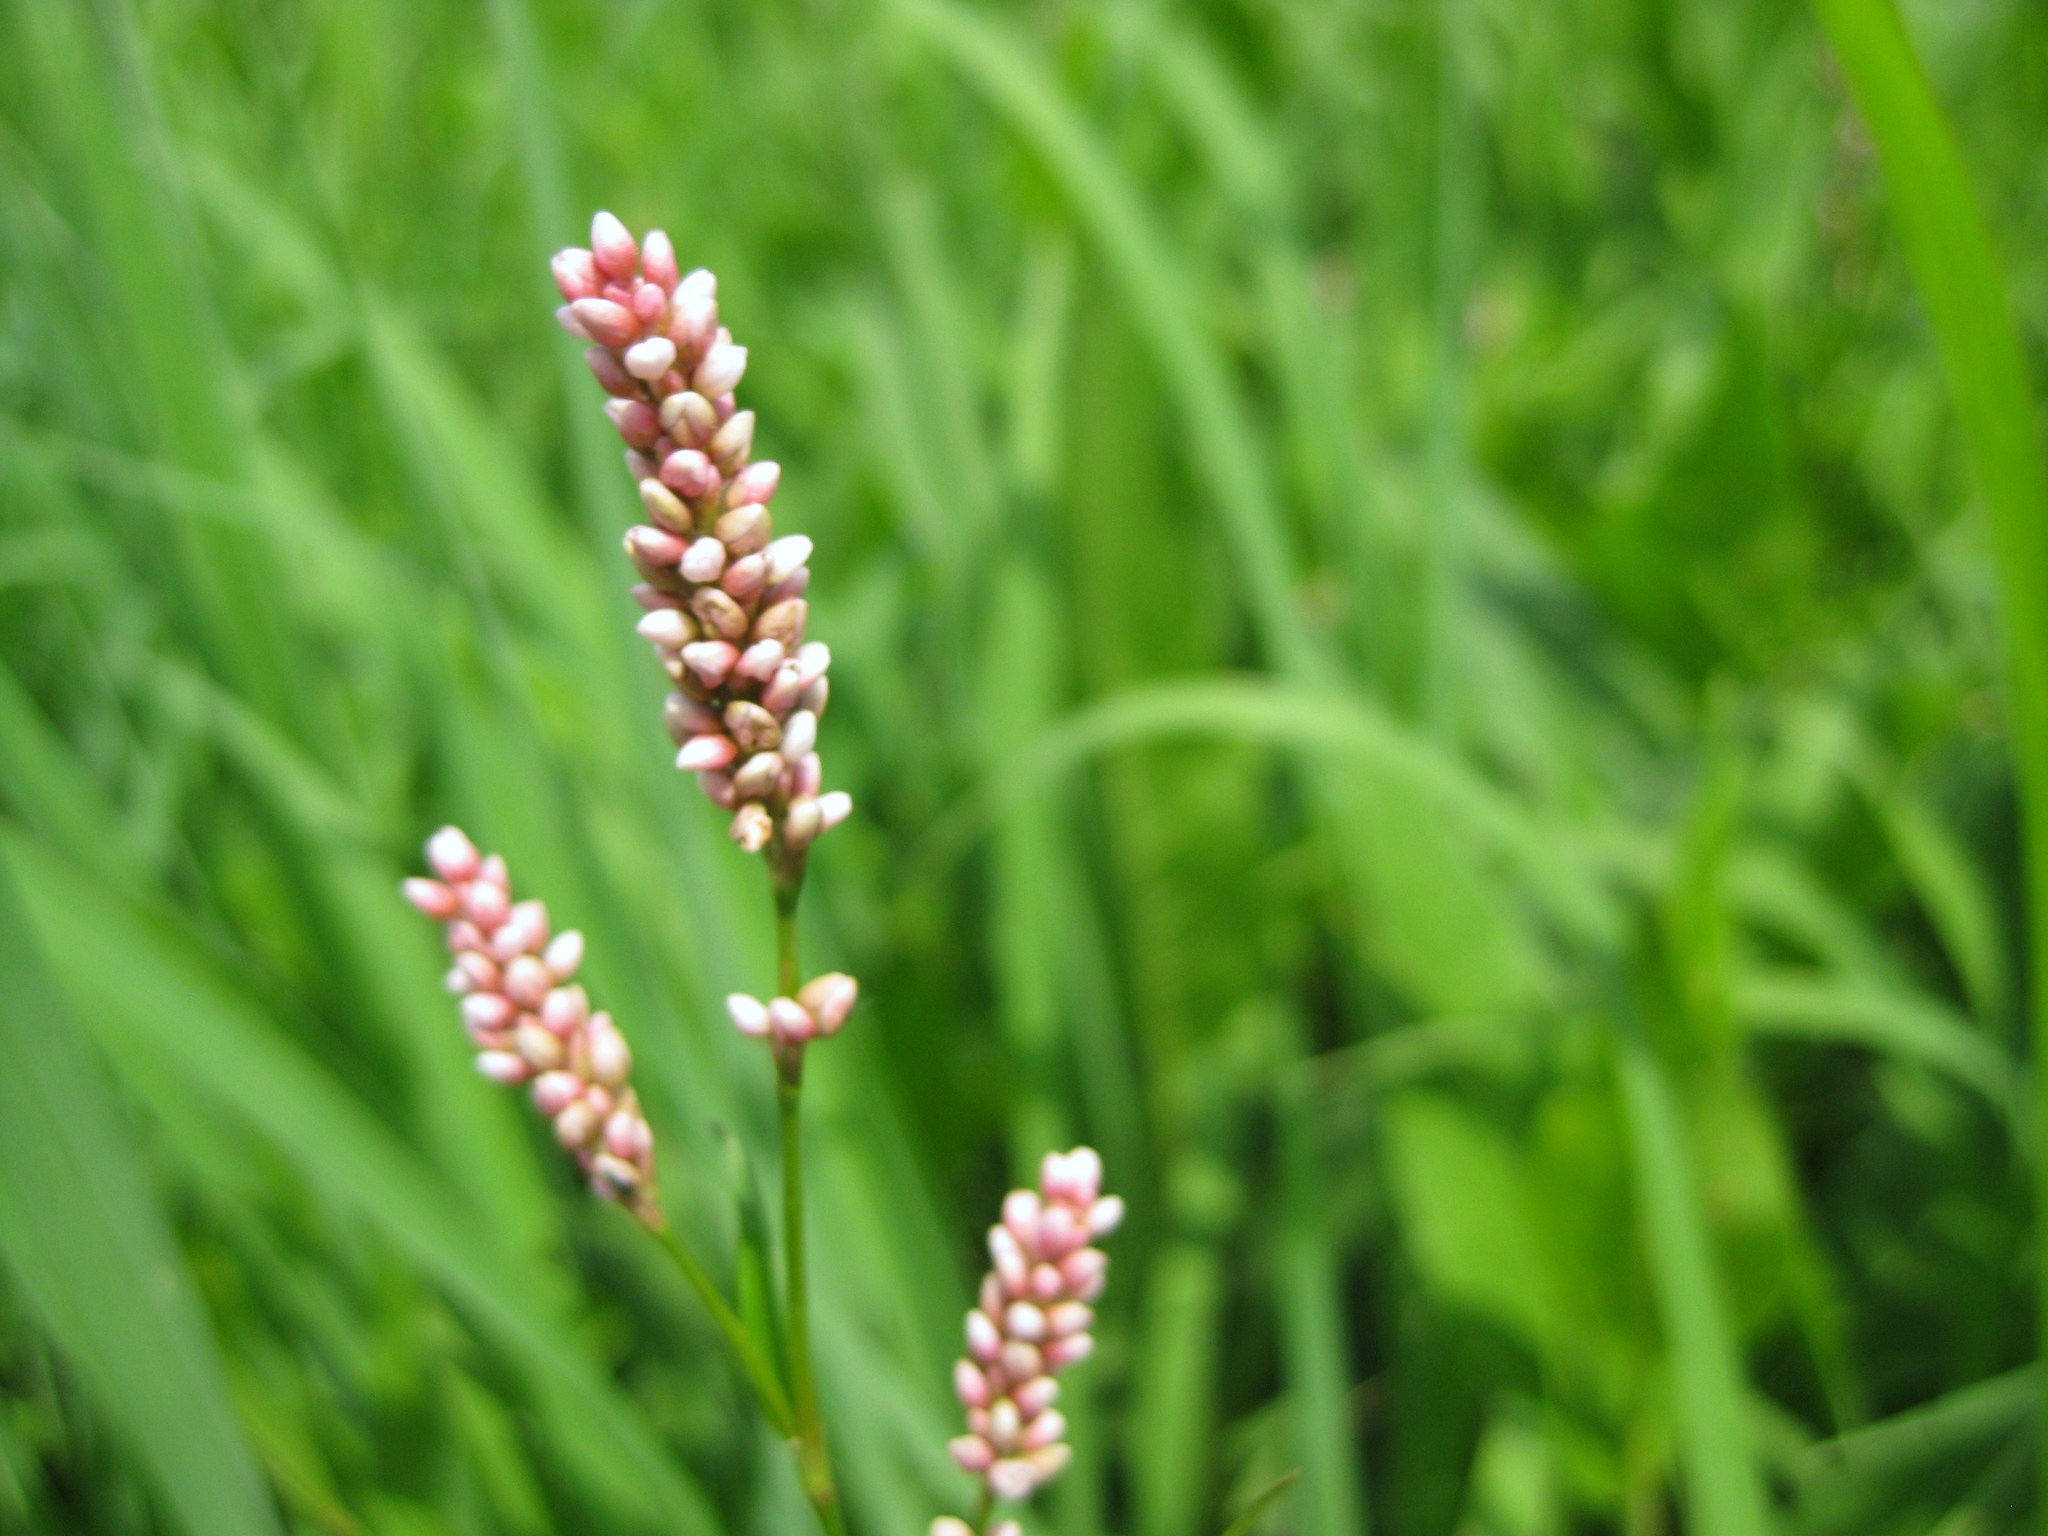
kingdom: Plantae
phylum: Tracheophyta
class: Magnoliopsida
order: Caryophyllales
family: Polygonaceae
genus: Persicaria
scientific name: Persicaria pensylvanica
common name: Pinkweed
